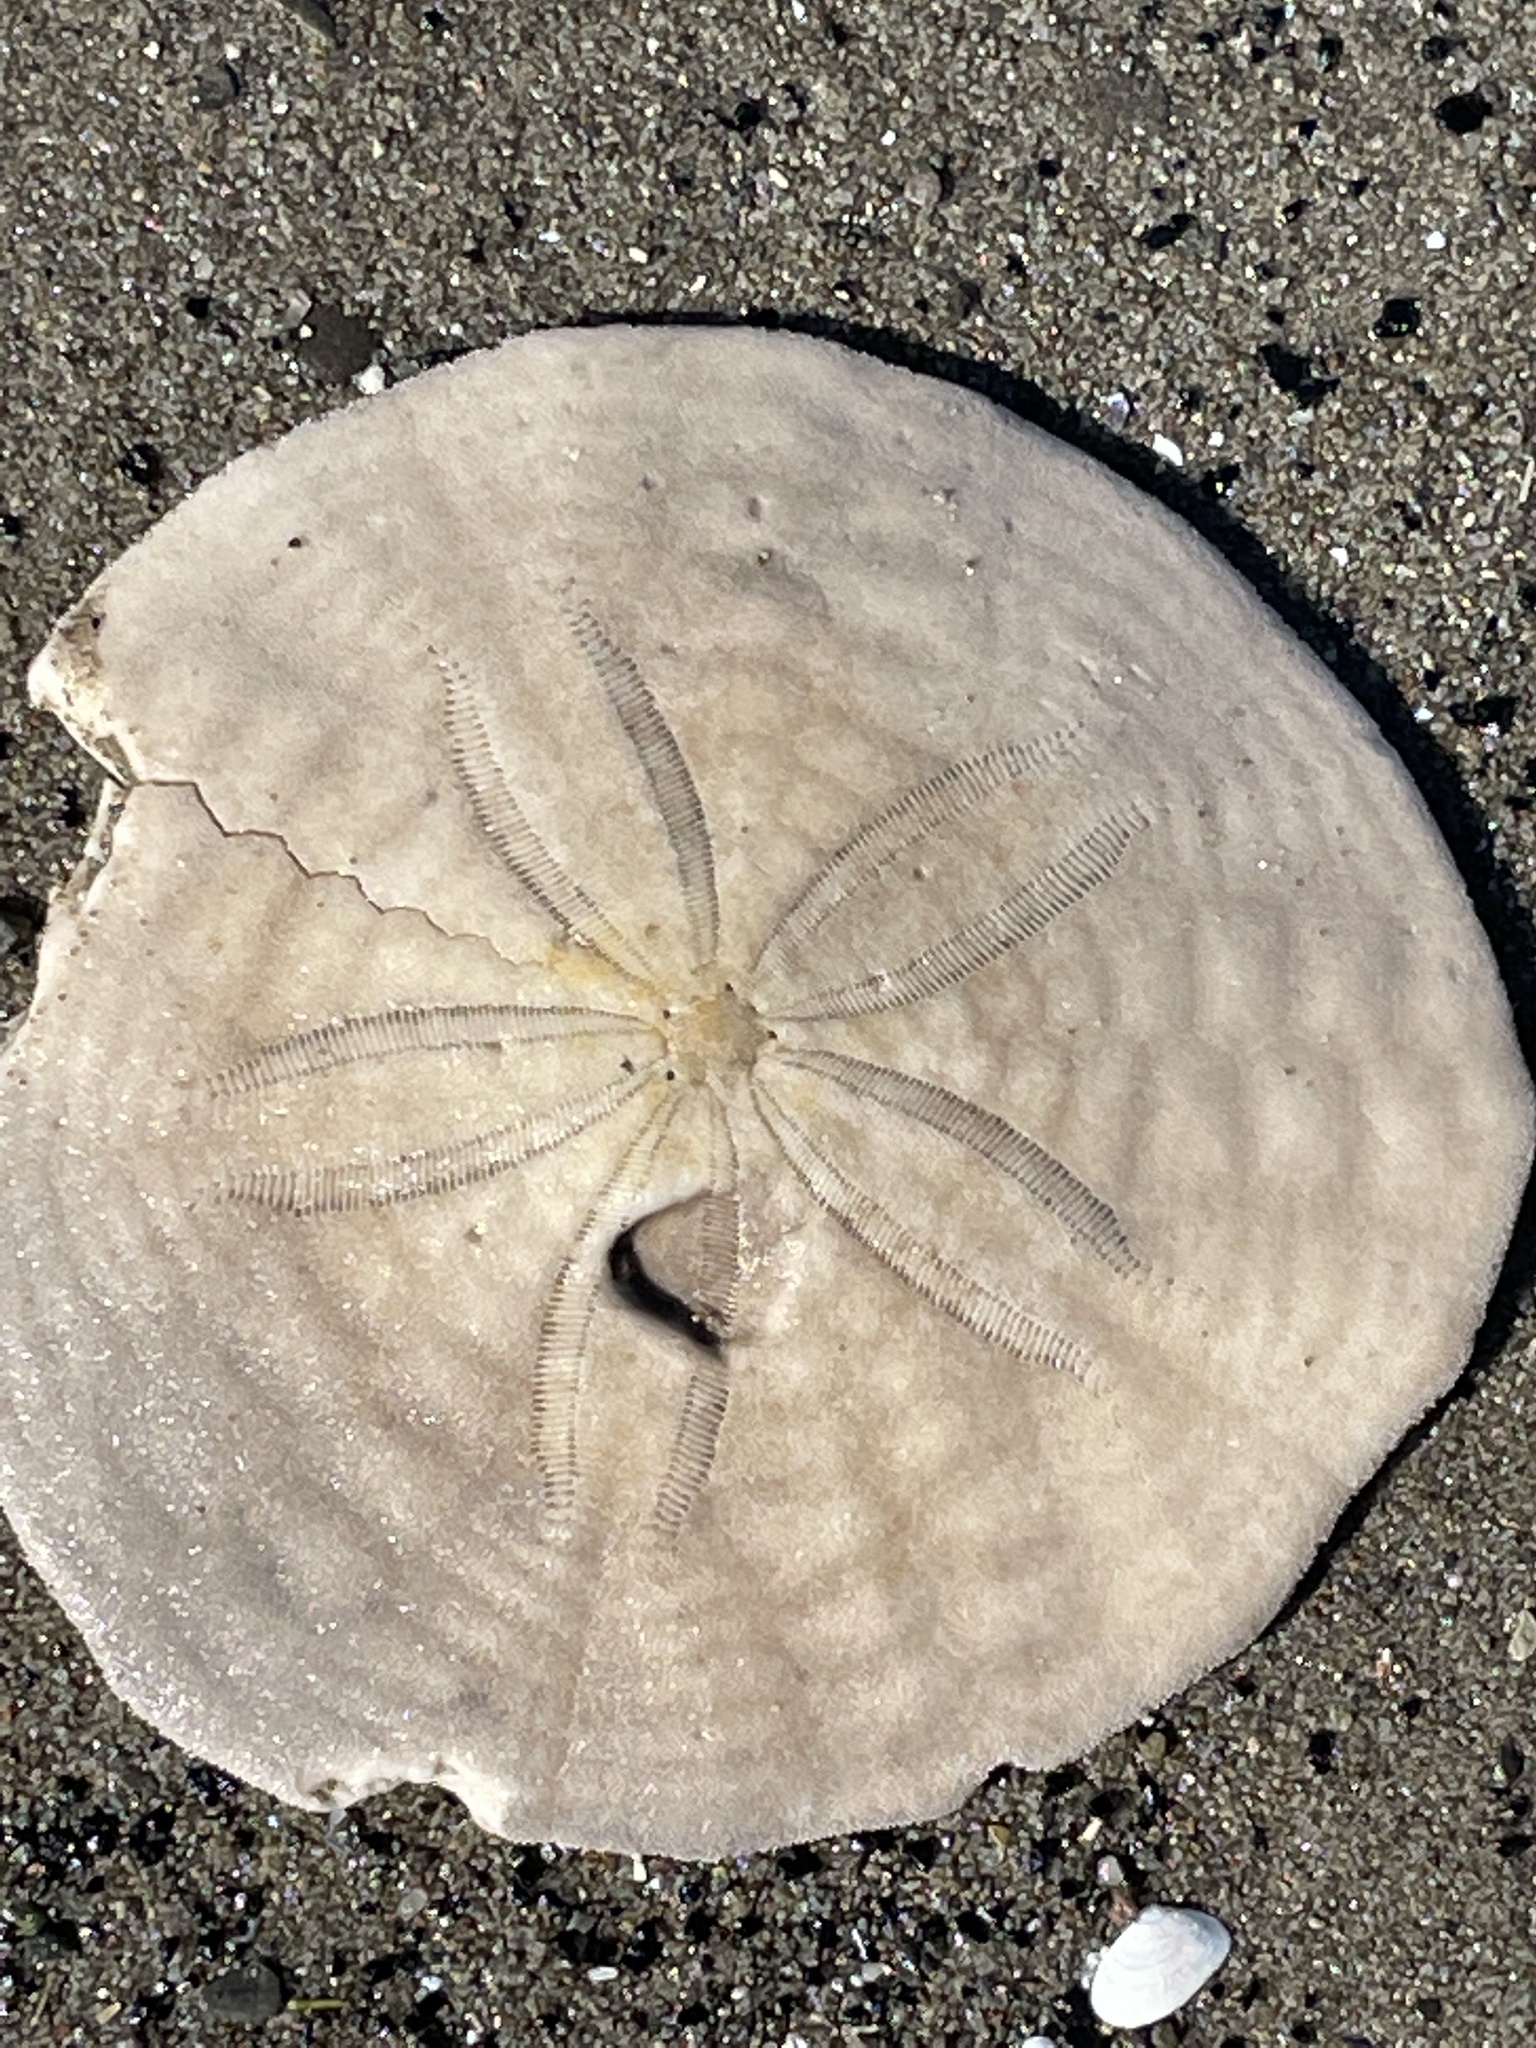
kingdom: Animalia
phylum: Echinodermata
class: Echinoidea
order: Echinolampadacea
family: Echinarachniidae
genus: Echinarachnius
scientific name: Echinarachnius parma
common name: Common sand dollar
